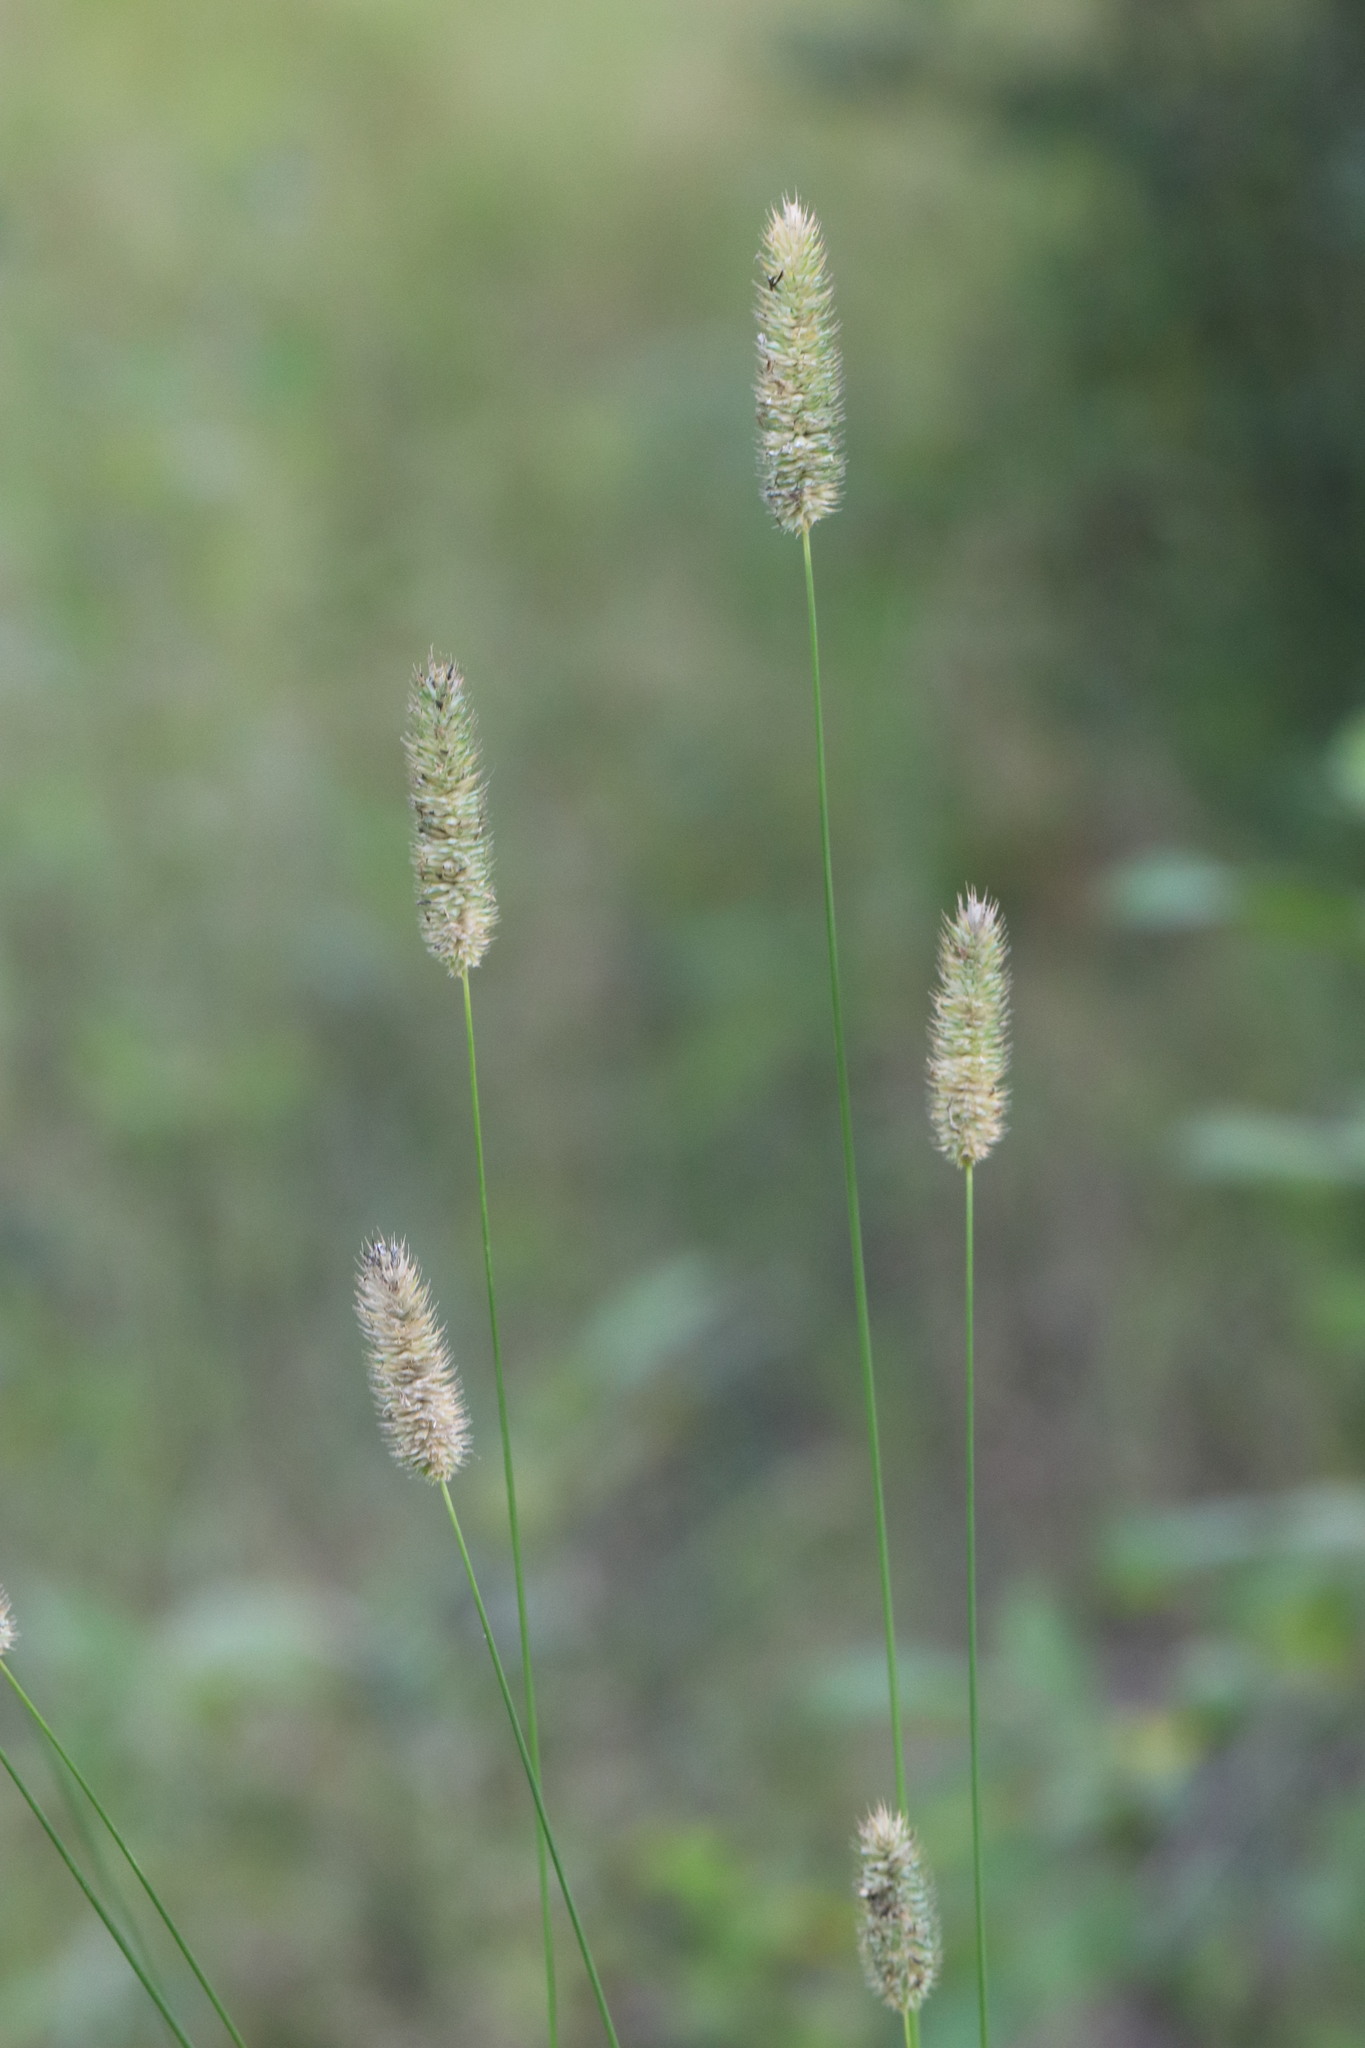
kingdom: Plantae
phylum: Tracheophyta
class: Liliopsida
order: Poales
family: Poaceae
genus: Phleum
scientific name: Phleum pratense
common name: Timothy grass
